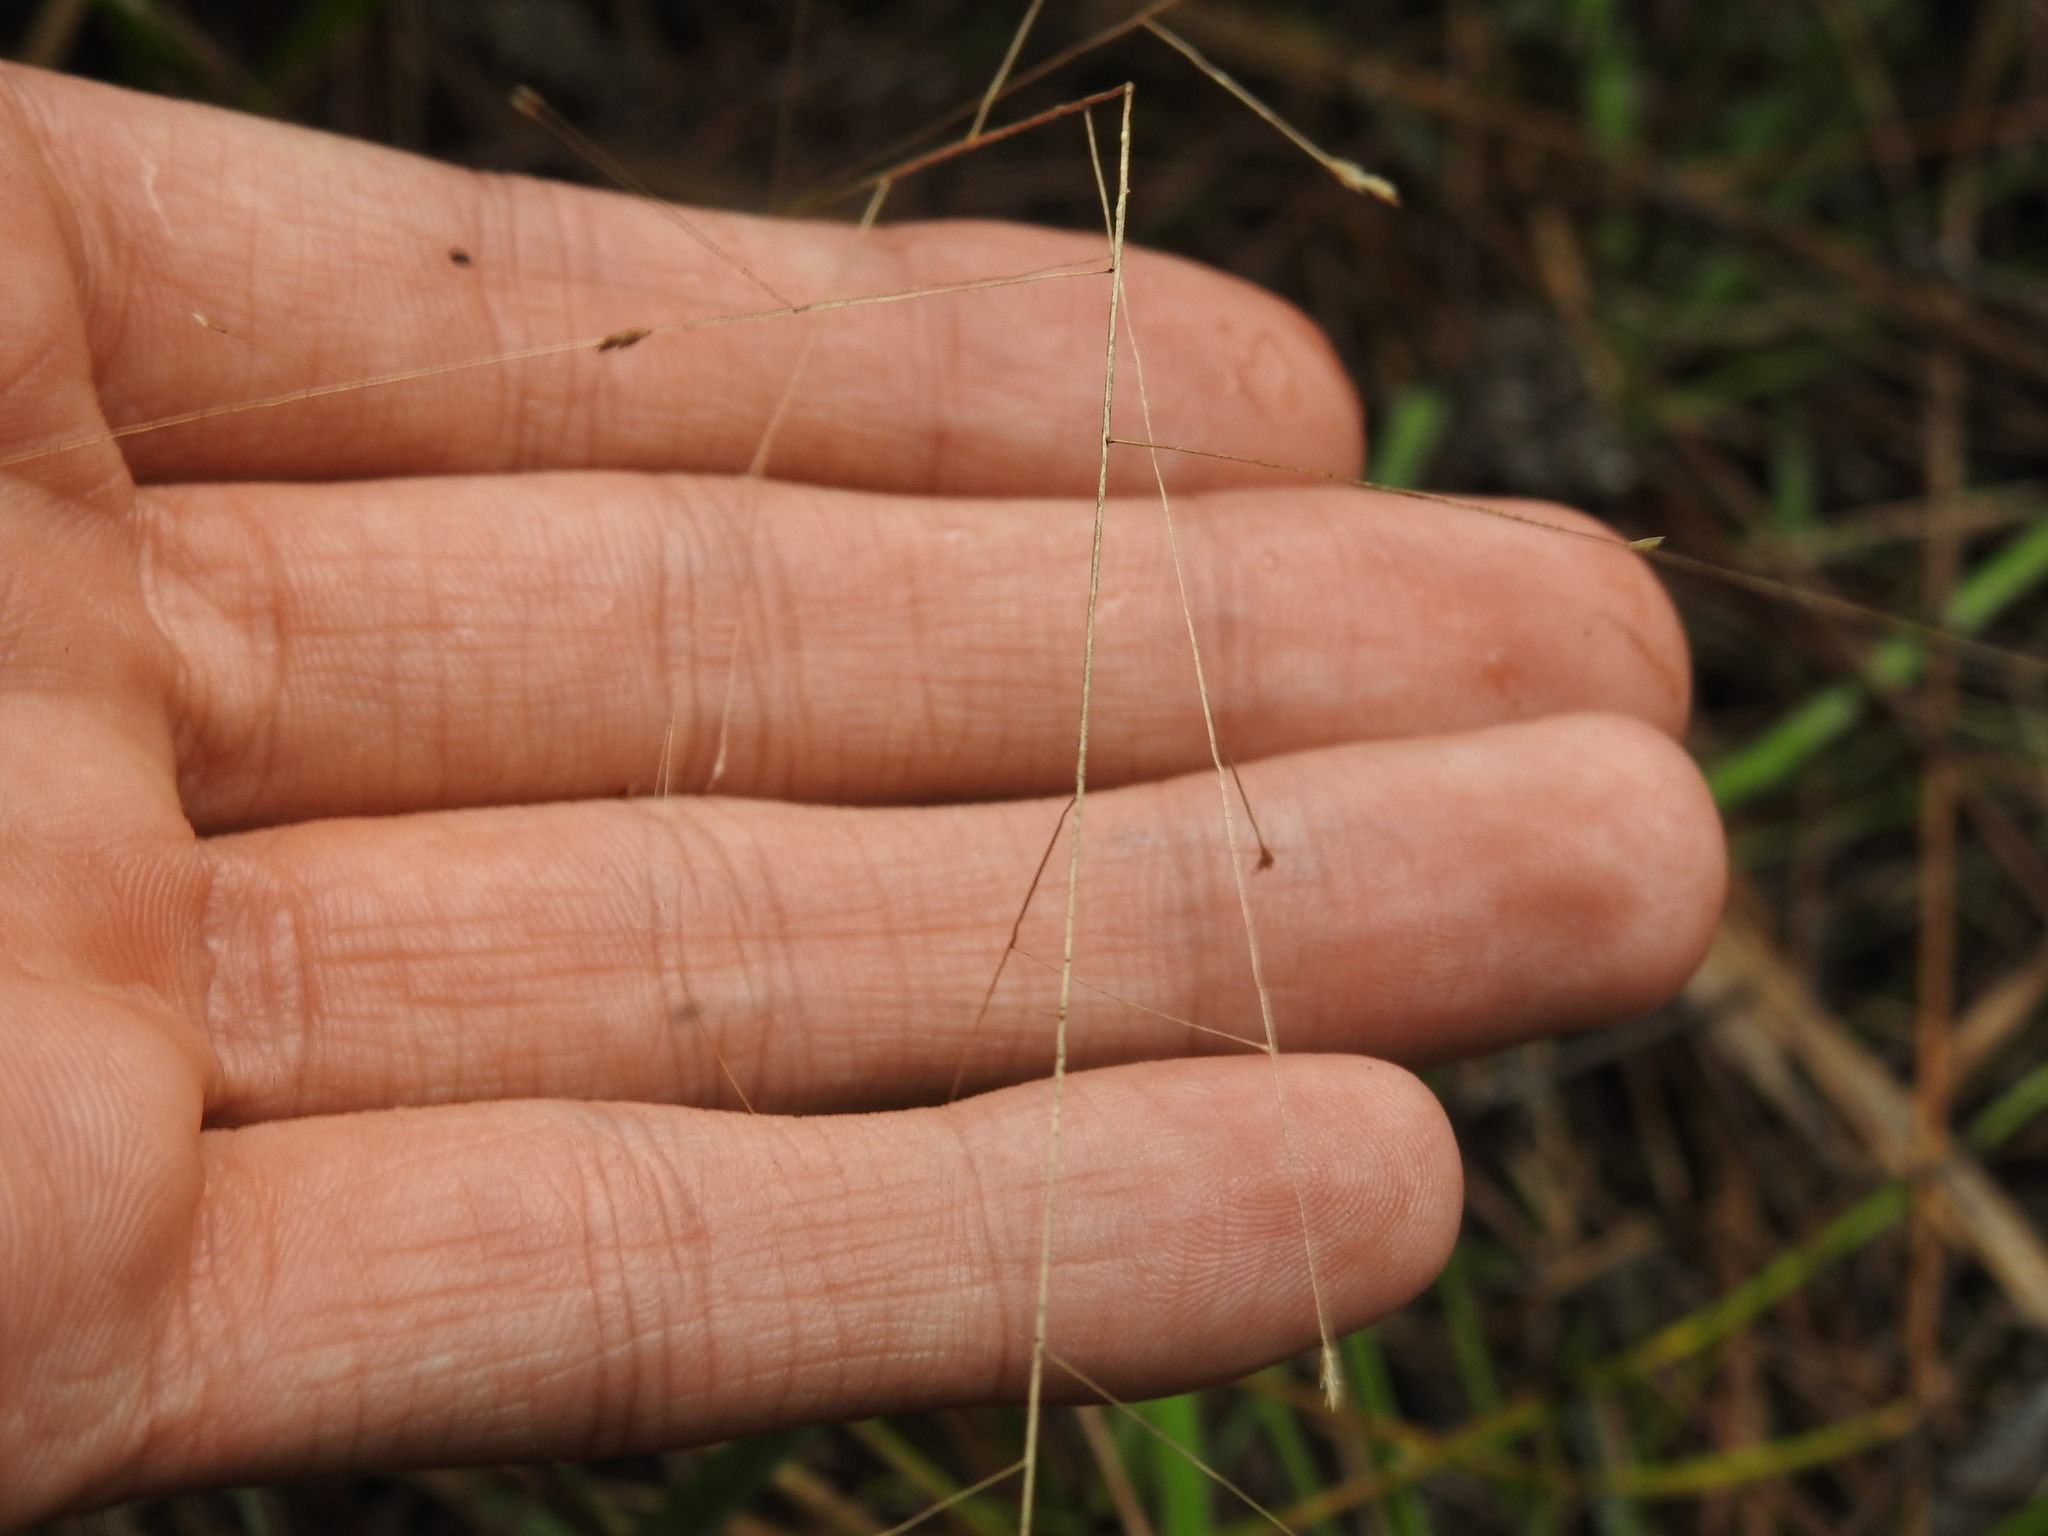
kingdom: Plantae
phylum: Tracheophyta
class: Liliopsida
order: Poales
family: Poaceae
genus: Eragrostis
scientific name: Eragrostis elliottii
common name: Elliott's love grass
